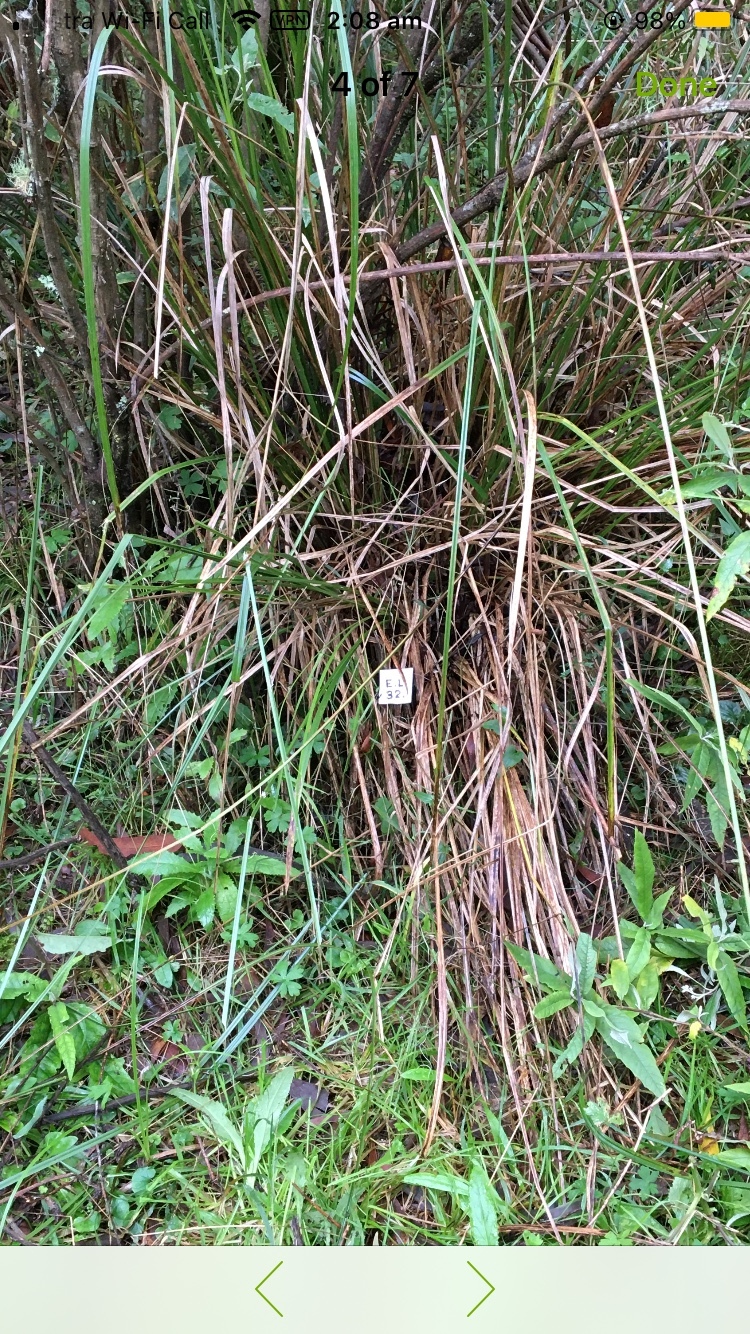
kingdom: Fungi
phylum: Basidiomycota
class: Agaricomycetes
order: Agaricales
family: Mycenaceae
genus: Panellus
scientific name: Panellus minimus
